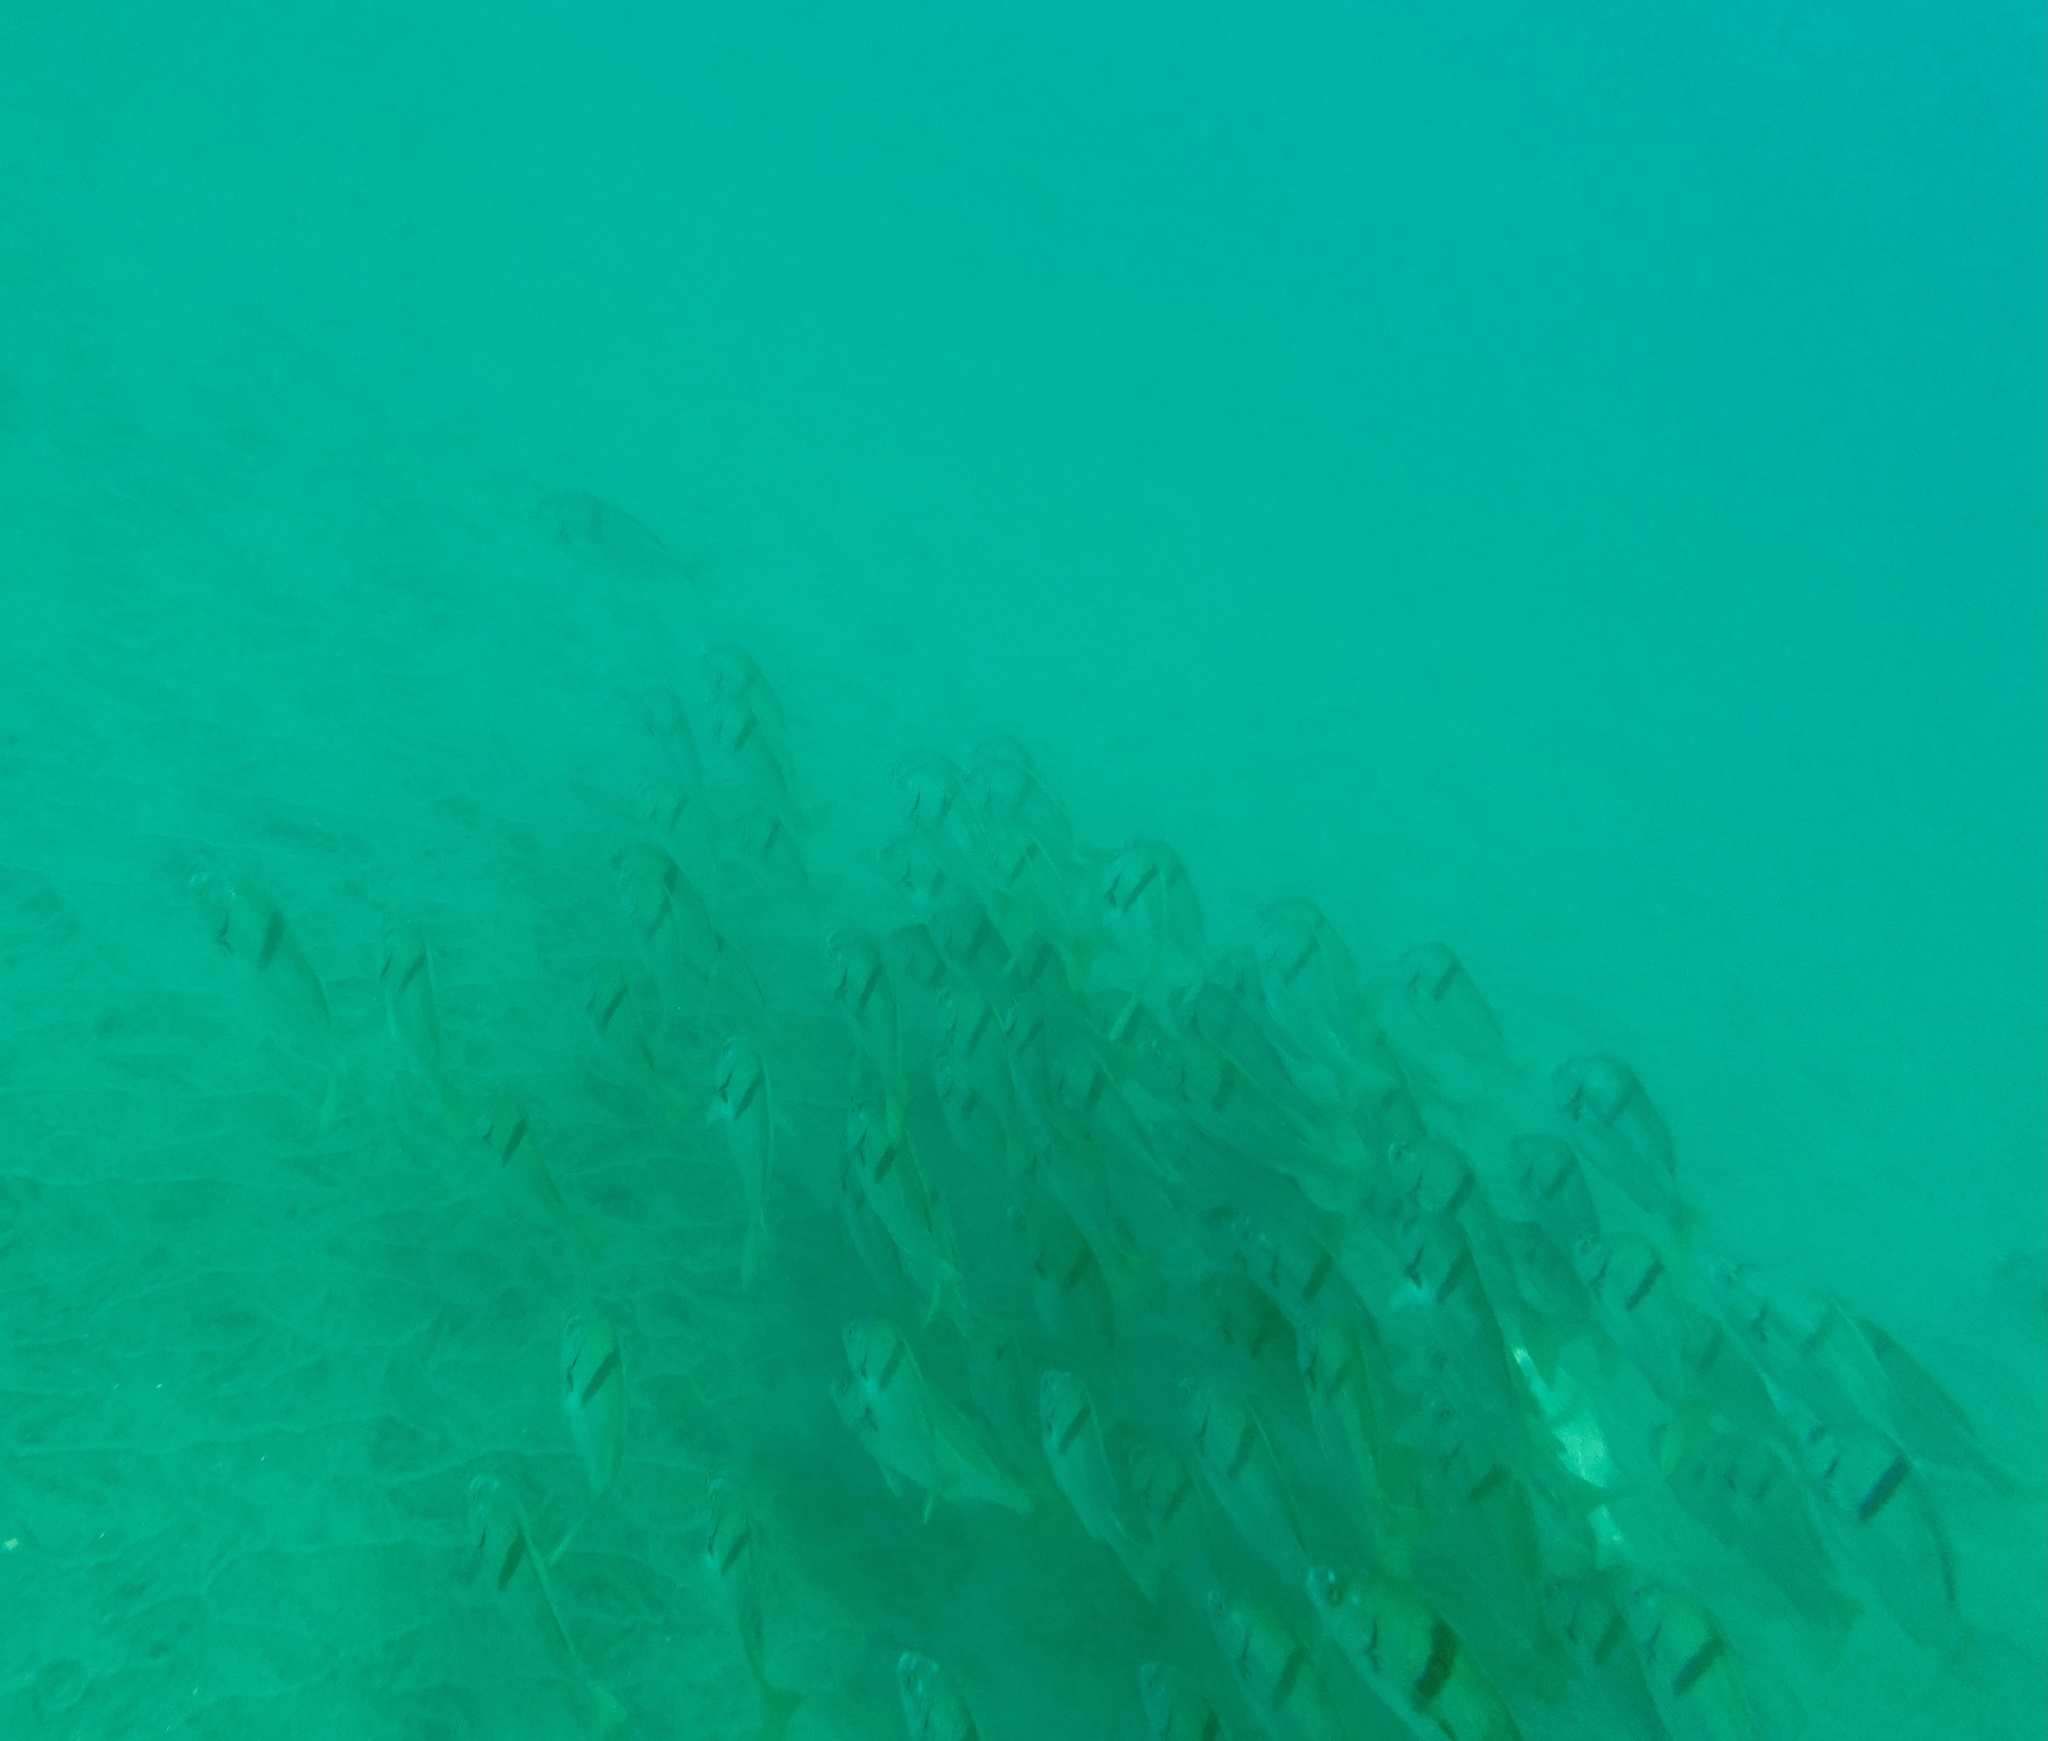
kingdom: Animalia
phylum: Chordata
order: Perciformes
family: Haemulidae
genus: Anisotremus
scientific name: Anisotremus davidsonii
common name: Grunt
